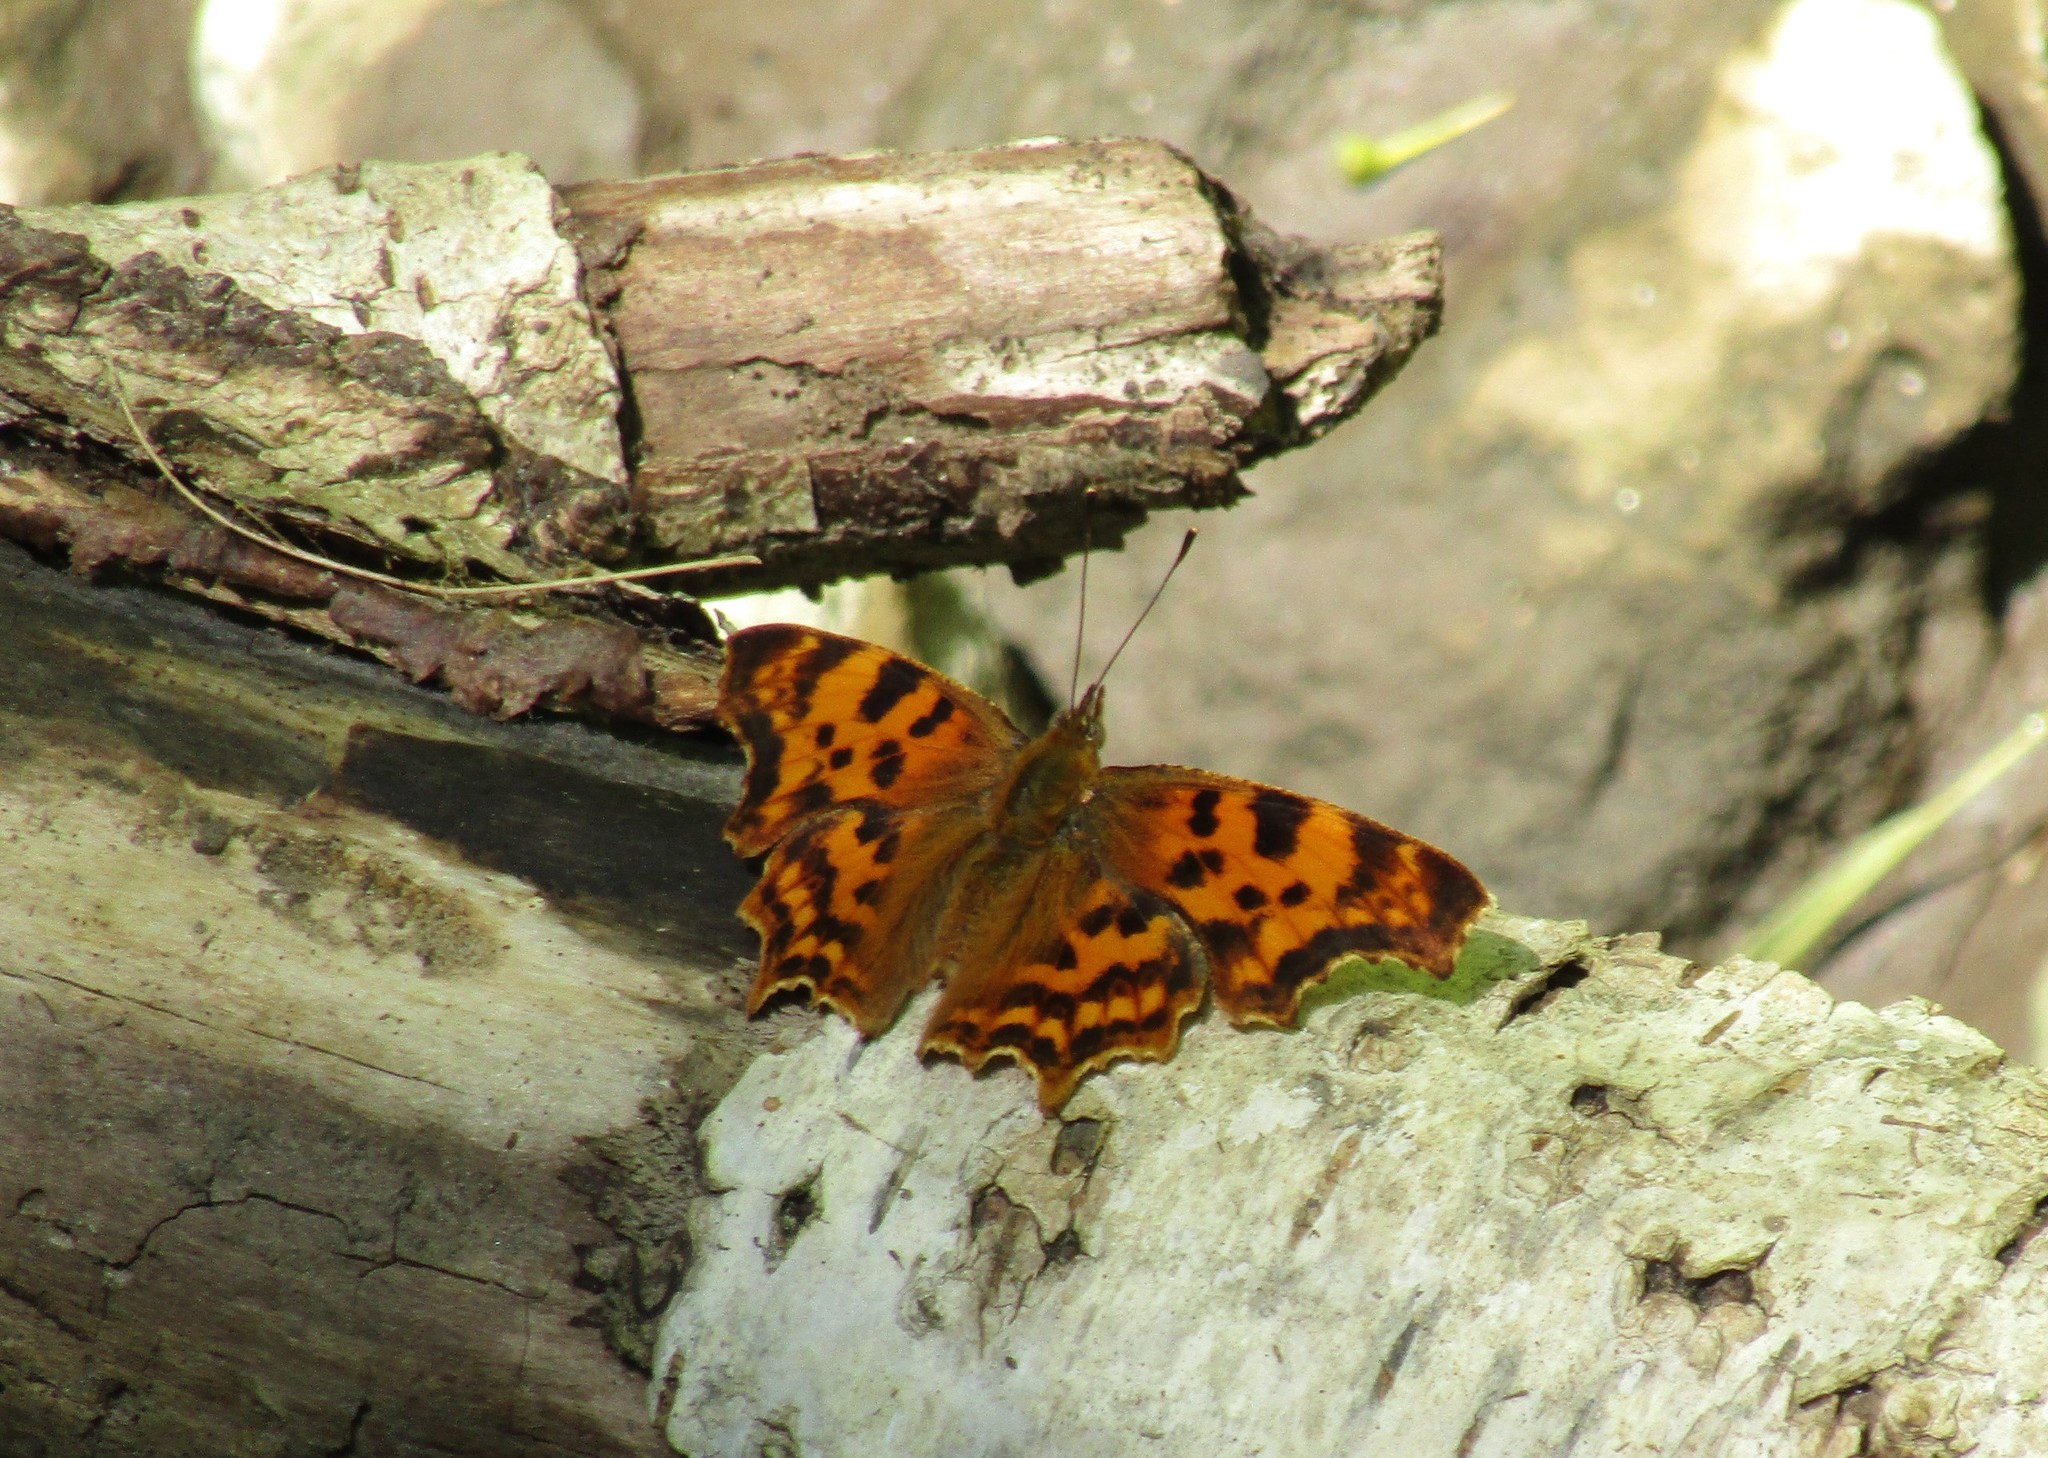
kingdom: Animalia
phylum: Arthropoda
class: Insecta
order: Lepidoptera
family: Nymphalidae
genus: Polygonia
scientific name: Polygonia c-album
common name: Comma
